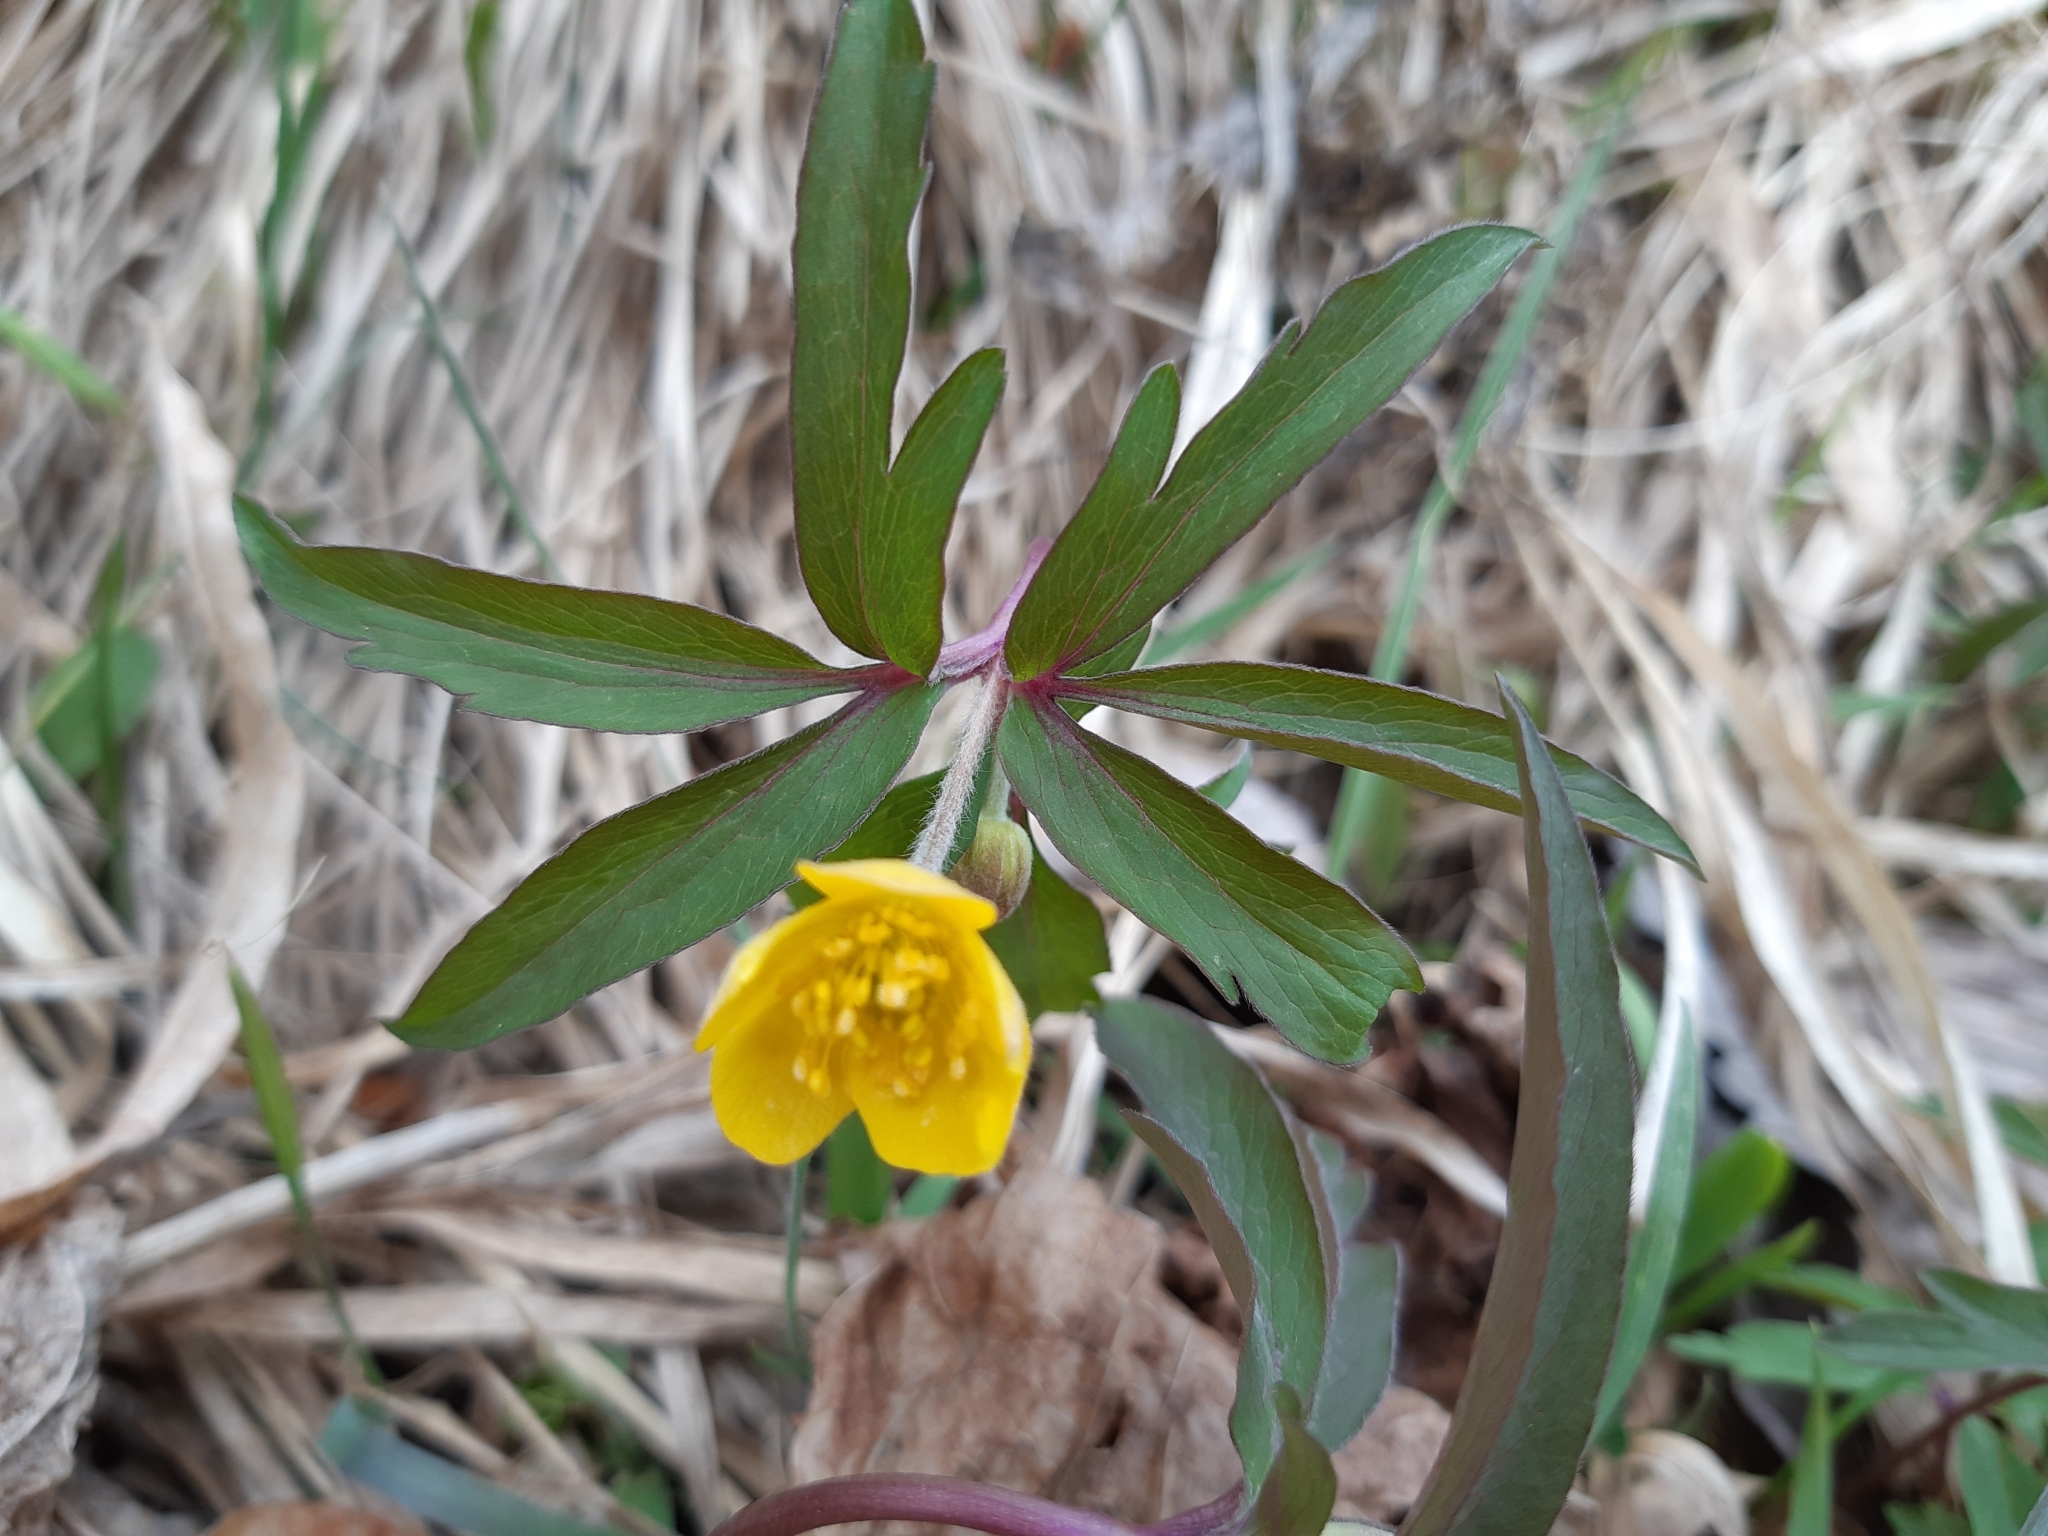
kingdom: Plantae
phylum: Tracheophyta
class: Magnoliopsida
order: Ranunculales
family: Ranunculaceae
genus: Anemone
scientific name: Anemone ranunculoides
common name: Yellow anemone
